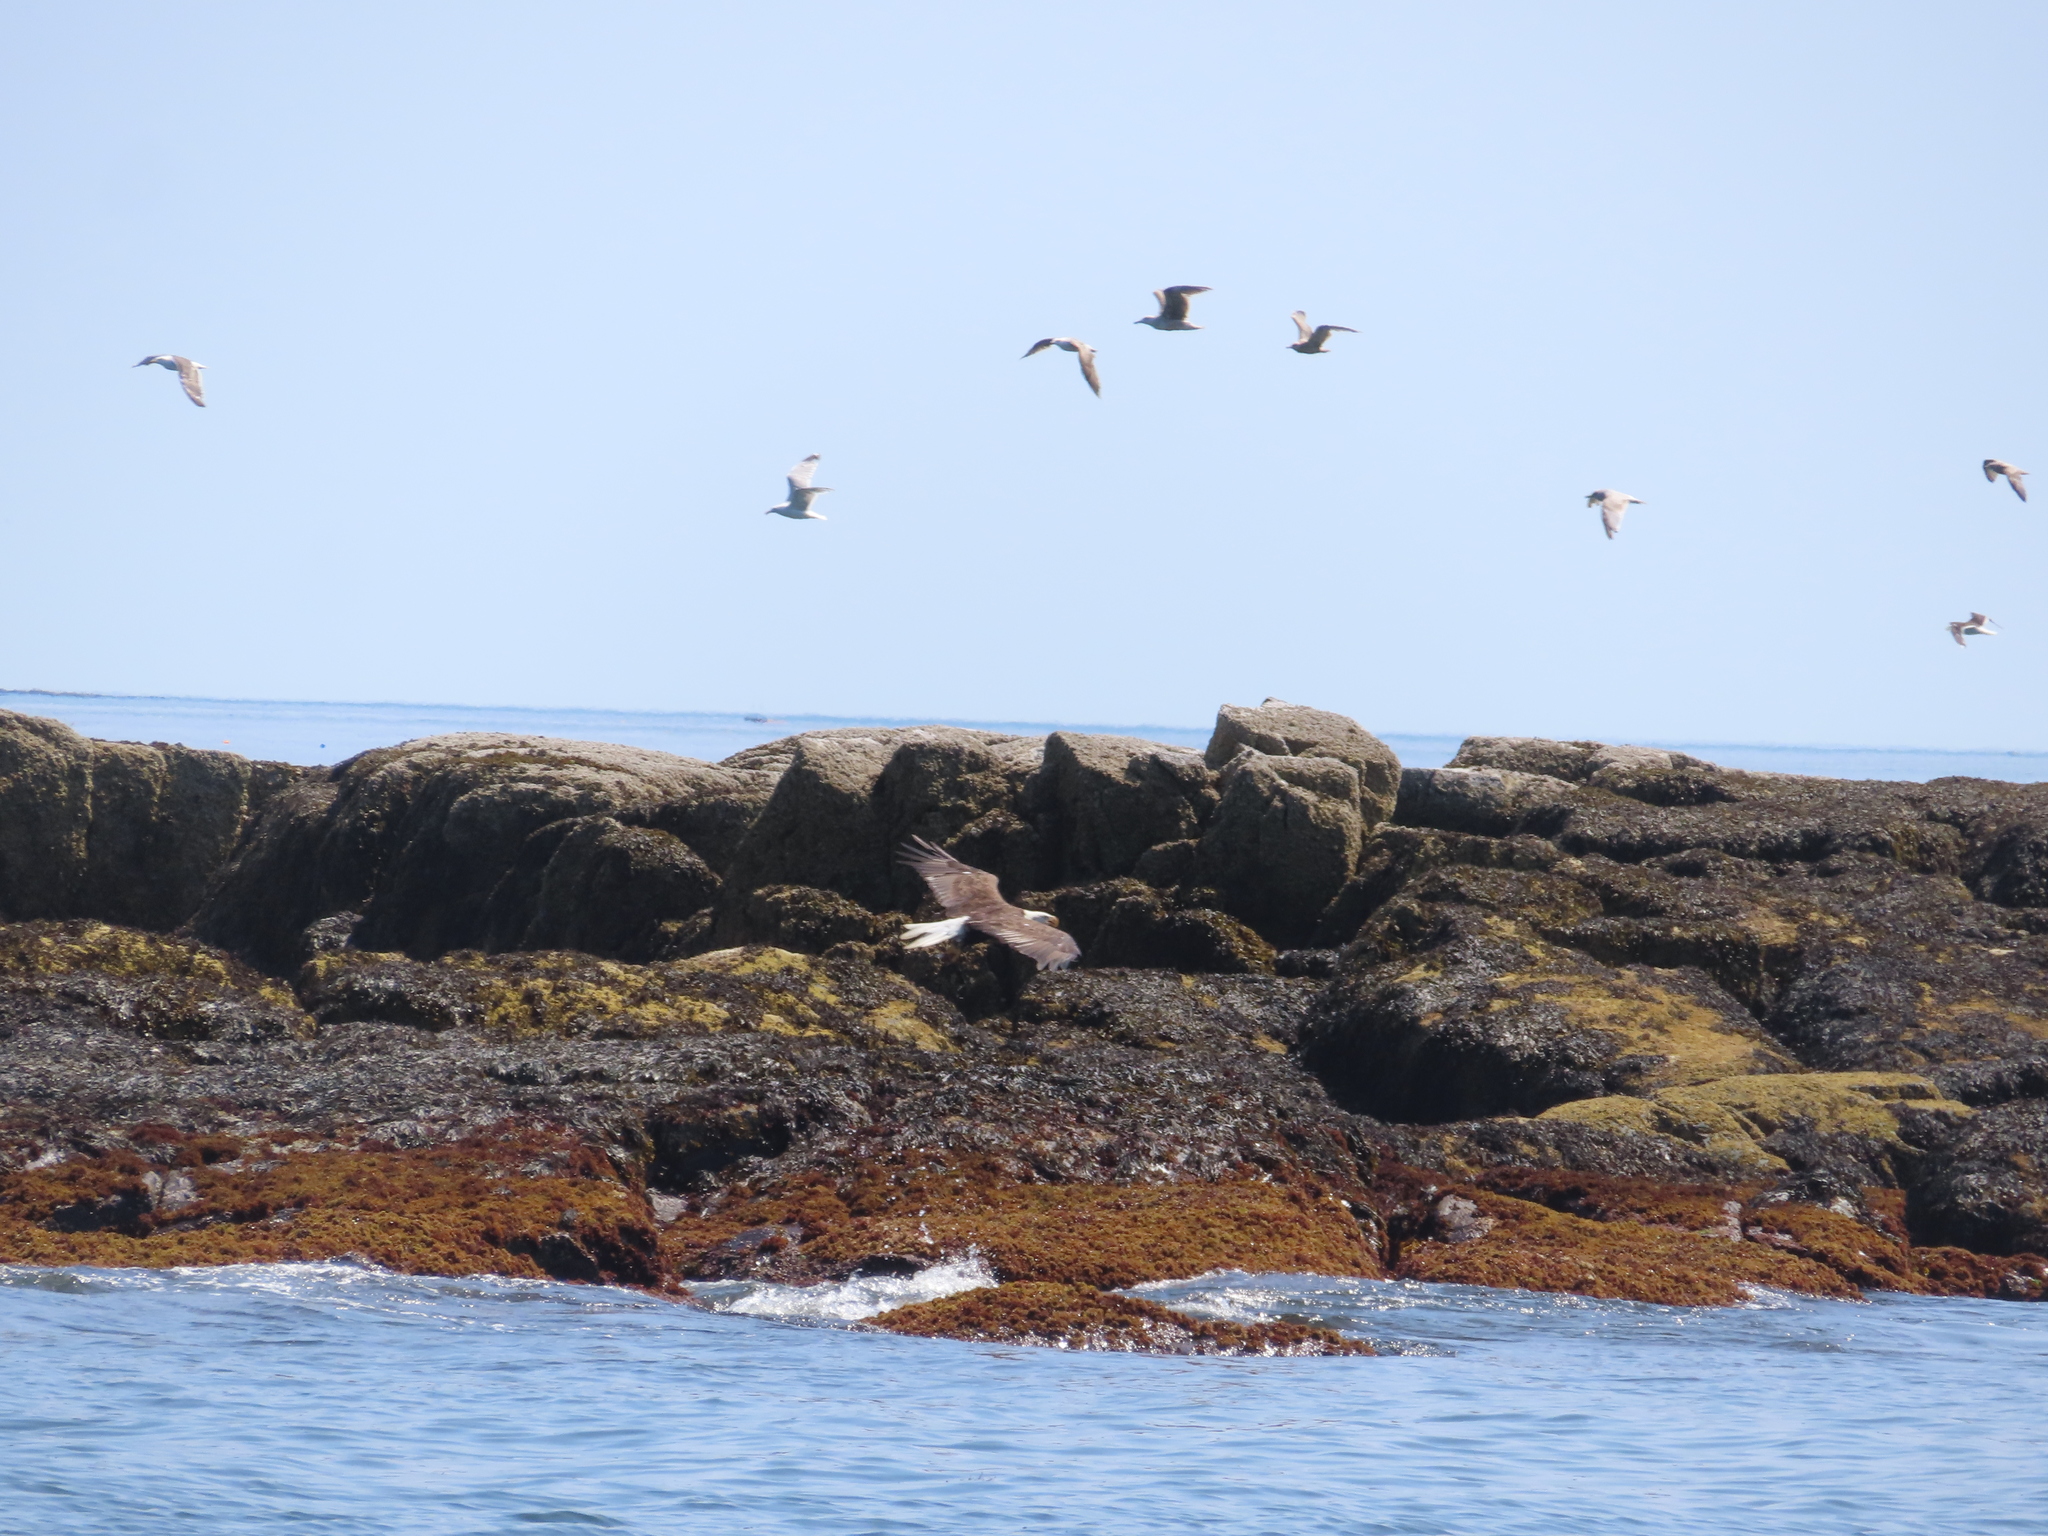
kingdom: Animalia
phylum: Chordata
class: Aves
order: Accipitriformes
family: Accipitridae
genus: Haliaeetus
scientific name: Haliaeetus leucocephalus
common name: Bald eagle
